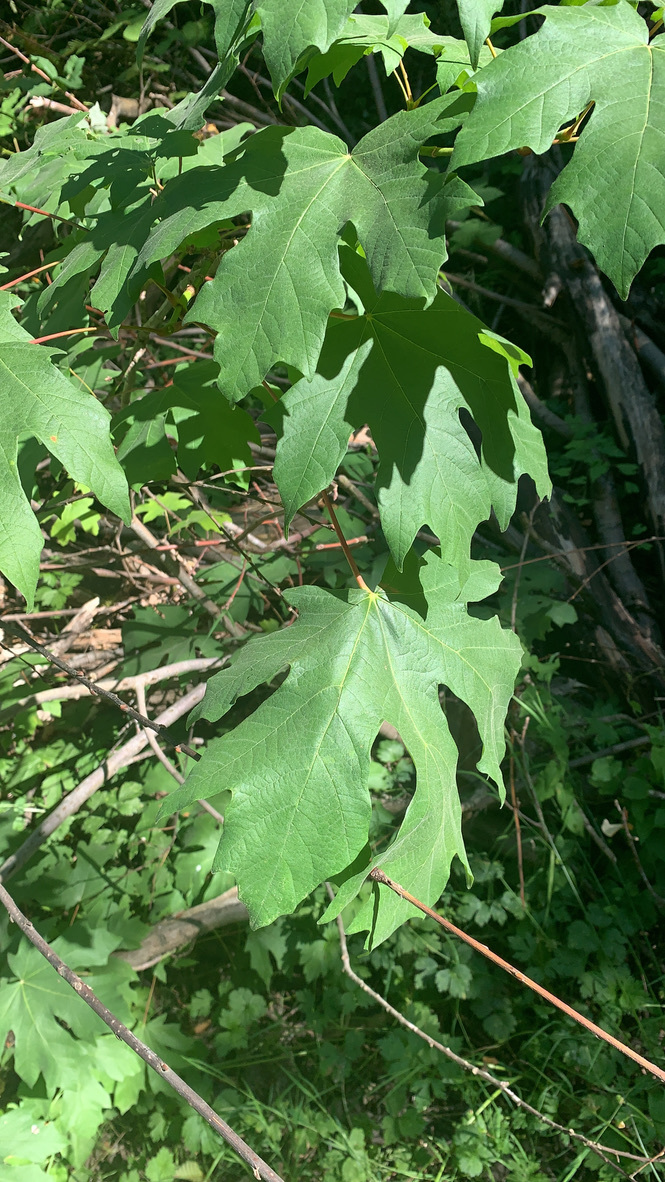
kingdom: Plantae
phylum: Tracheophyta
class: Magnoliopsida
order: Sapindales
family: Sapindaceae
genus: Acer
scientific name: Acer macrophyllum
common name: Oregon maple
